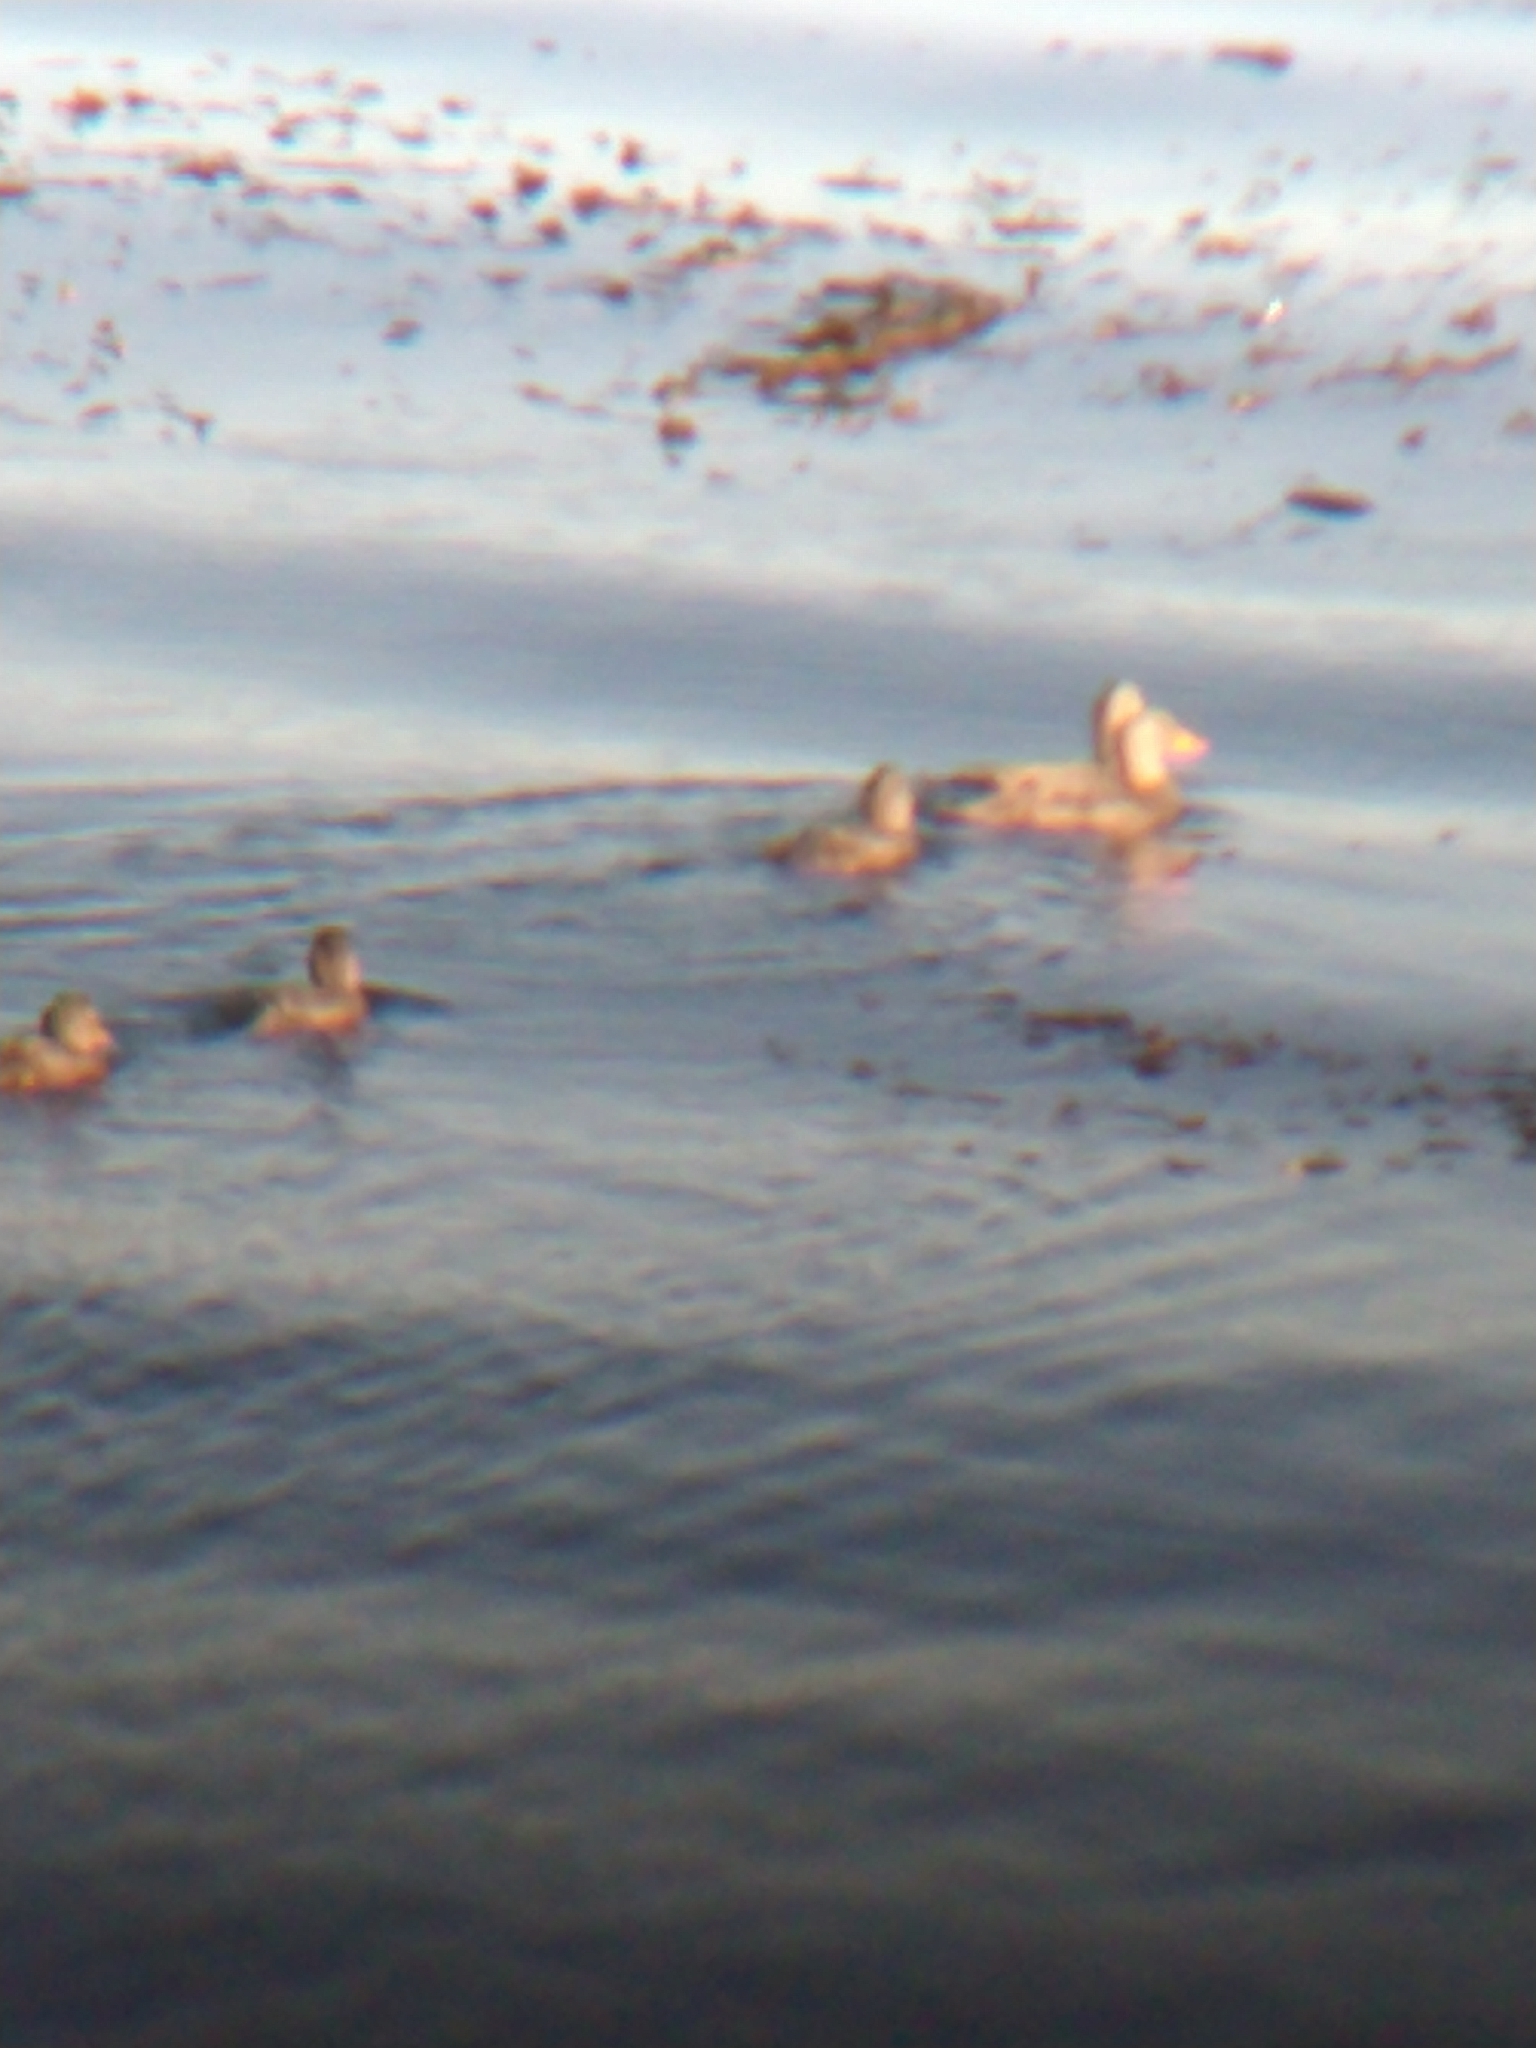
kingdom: Animalia
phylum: Chordata
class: Aves
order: Anseriformes
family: Anatidae
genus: Tachyeres
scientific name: Tachyeres pteneres
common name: Fuegian steamer duck
